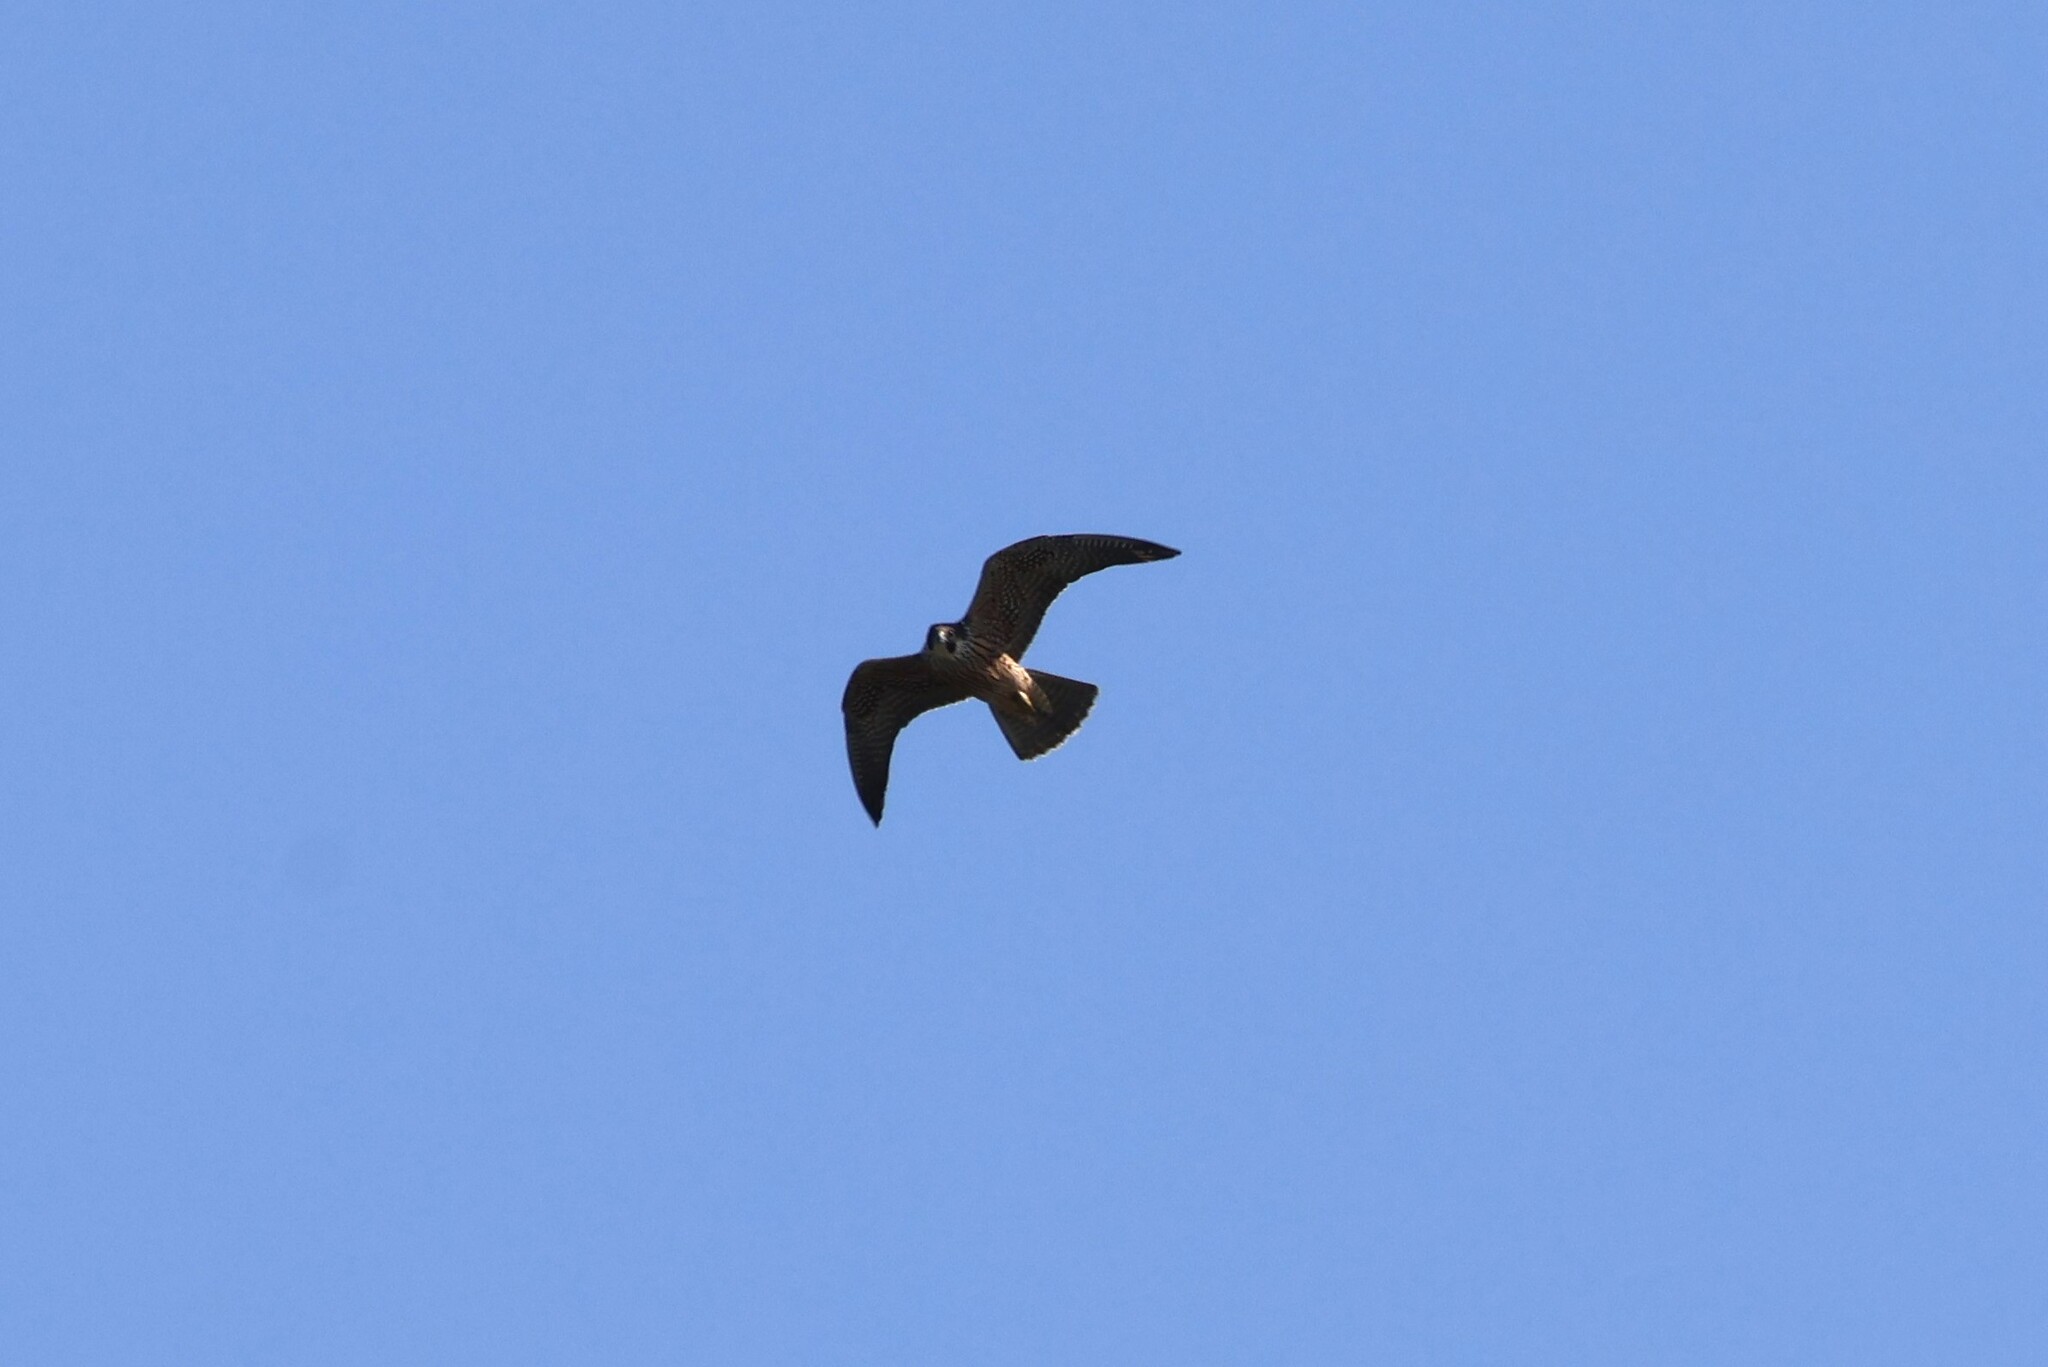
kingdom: Animalia
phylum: Chordata
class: Aves
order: Falconiformes
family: Falconidae
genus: Falco
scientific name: Falco peregrinus
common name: Peregrine falcon
